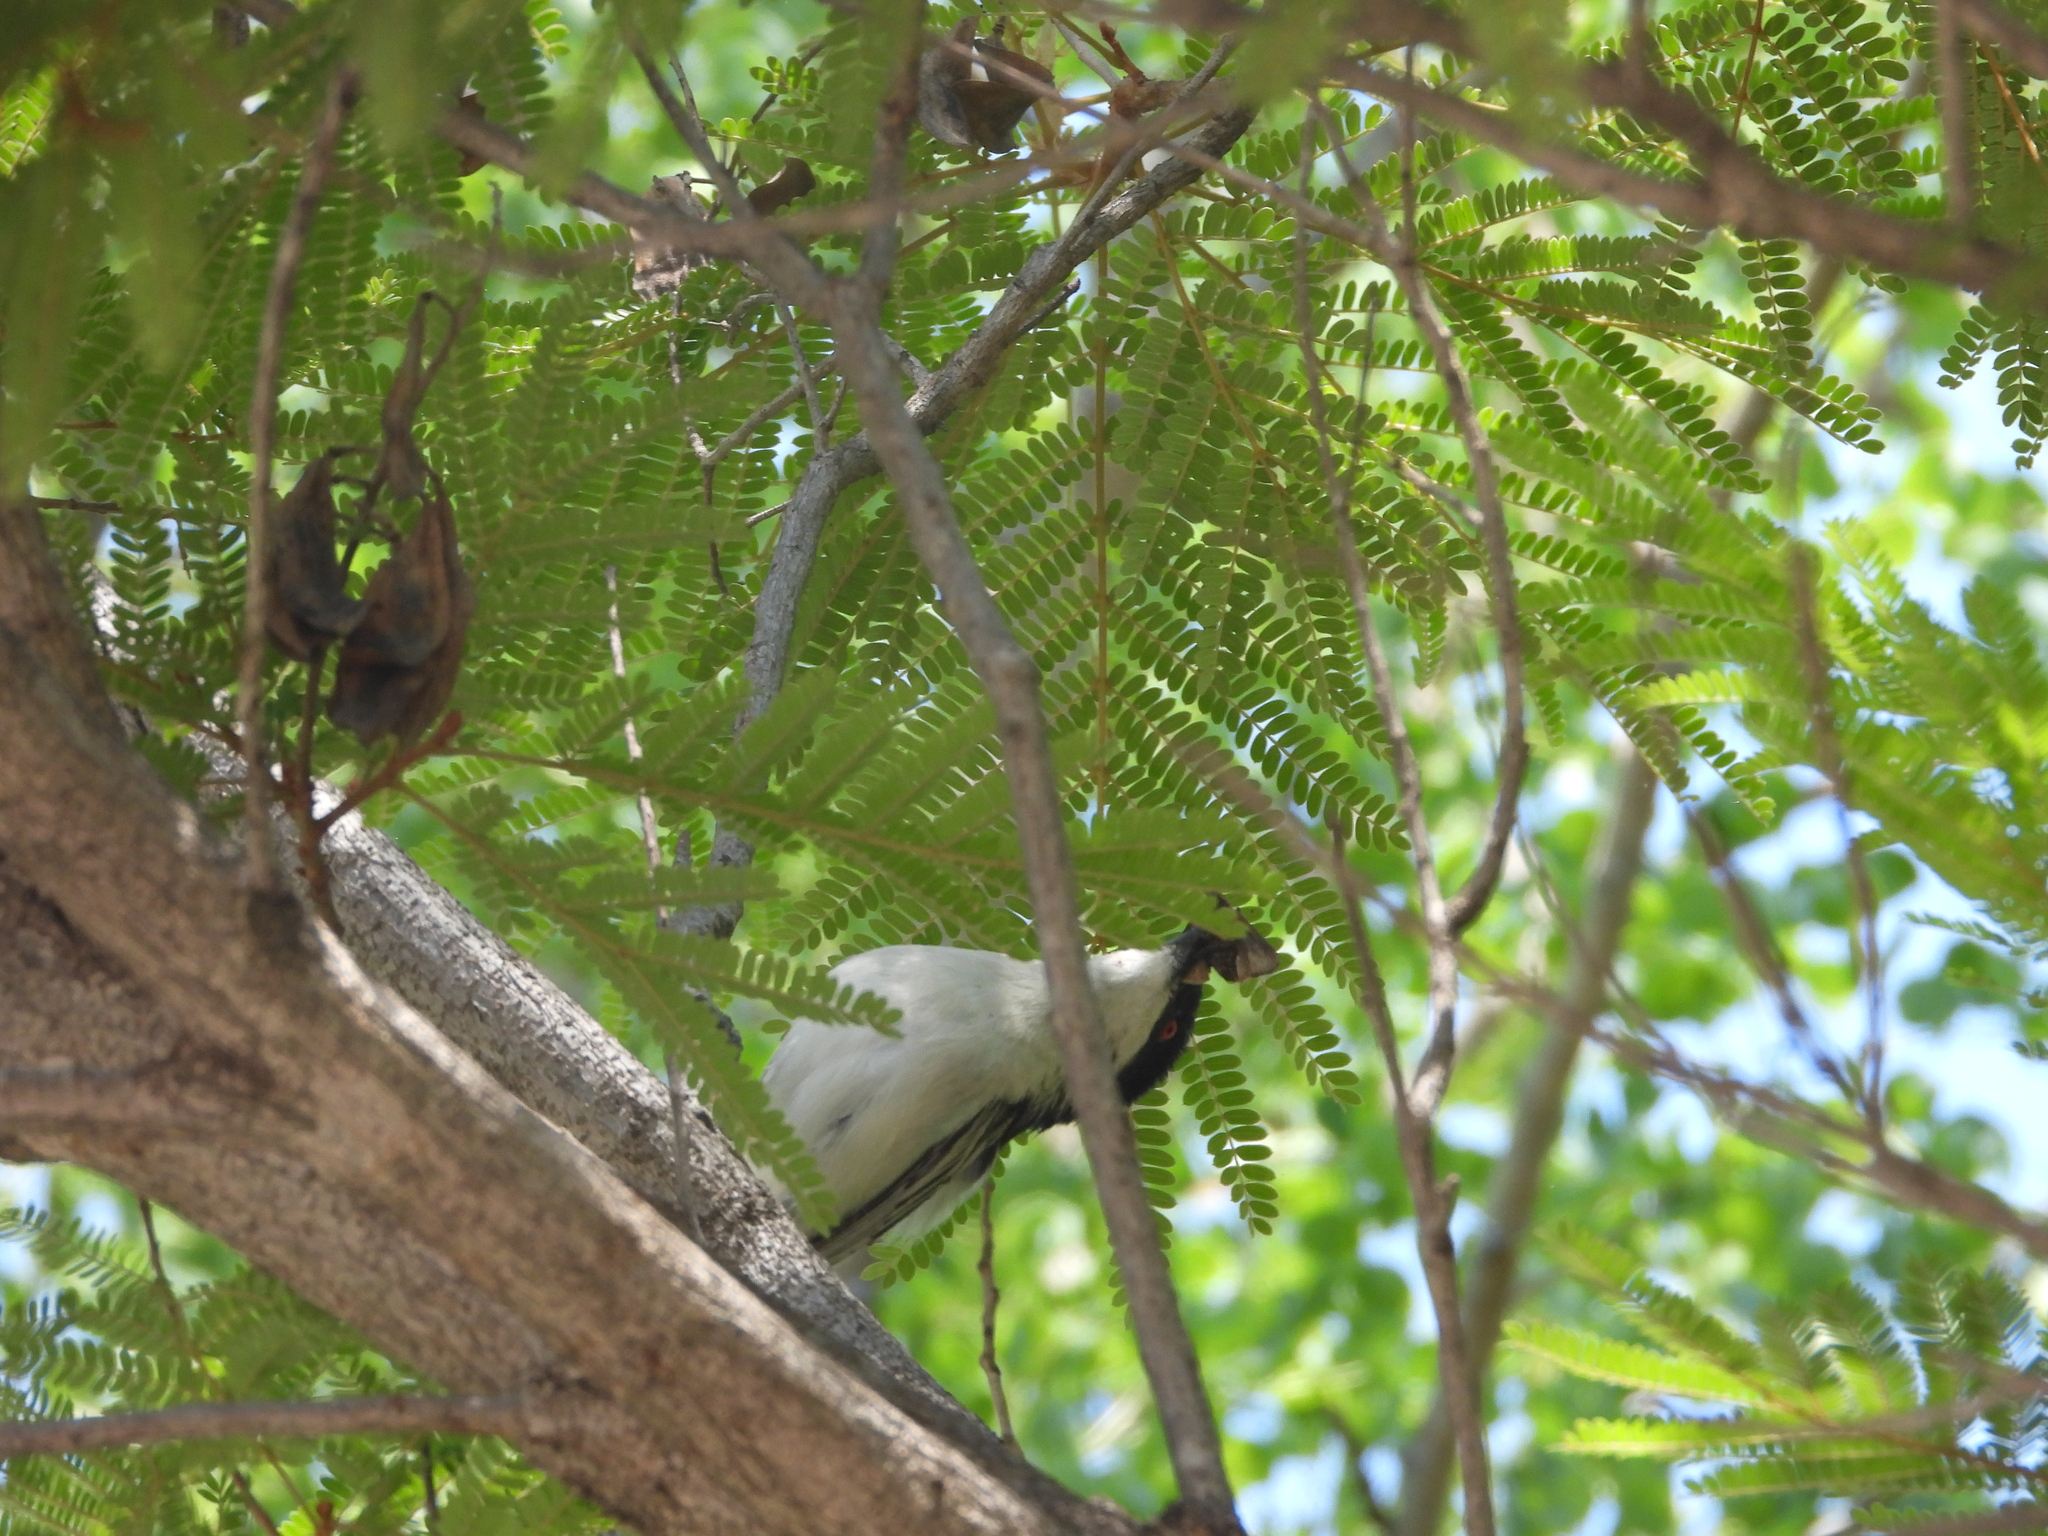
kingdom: Animalia
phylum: Chordata
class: Aves
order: Passeriformes
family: Malaconotidae
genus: Dryoscopus
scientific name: Dryoscopus cubla
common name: Black-backed puffback
